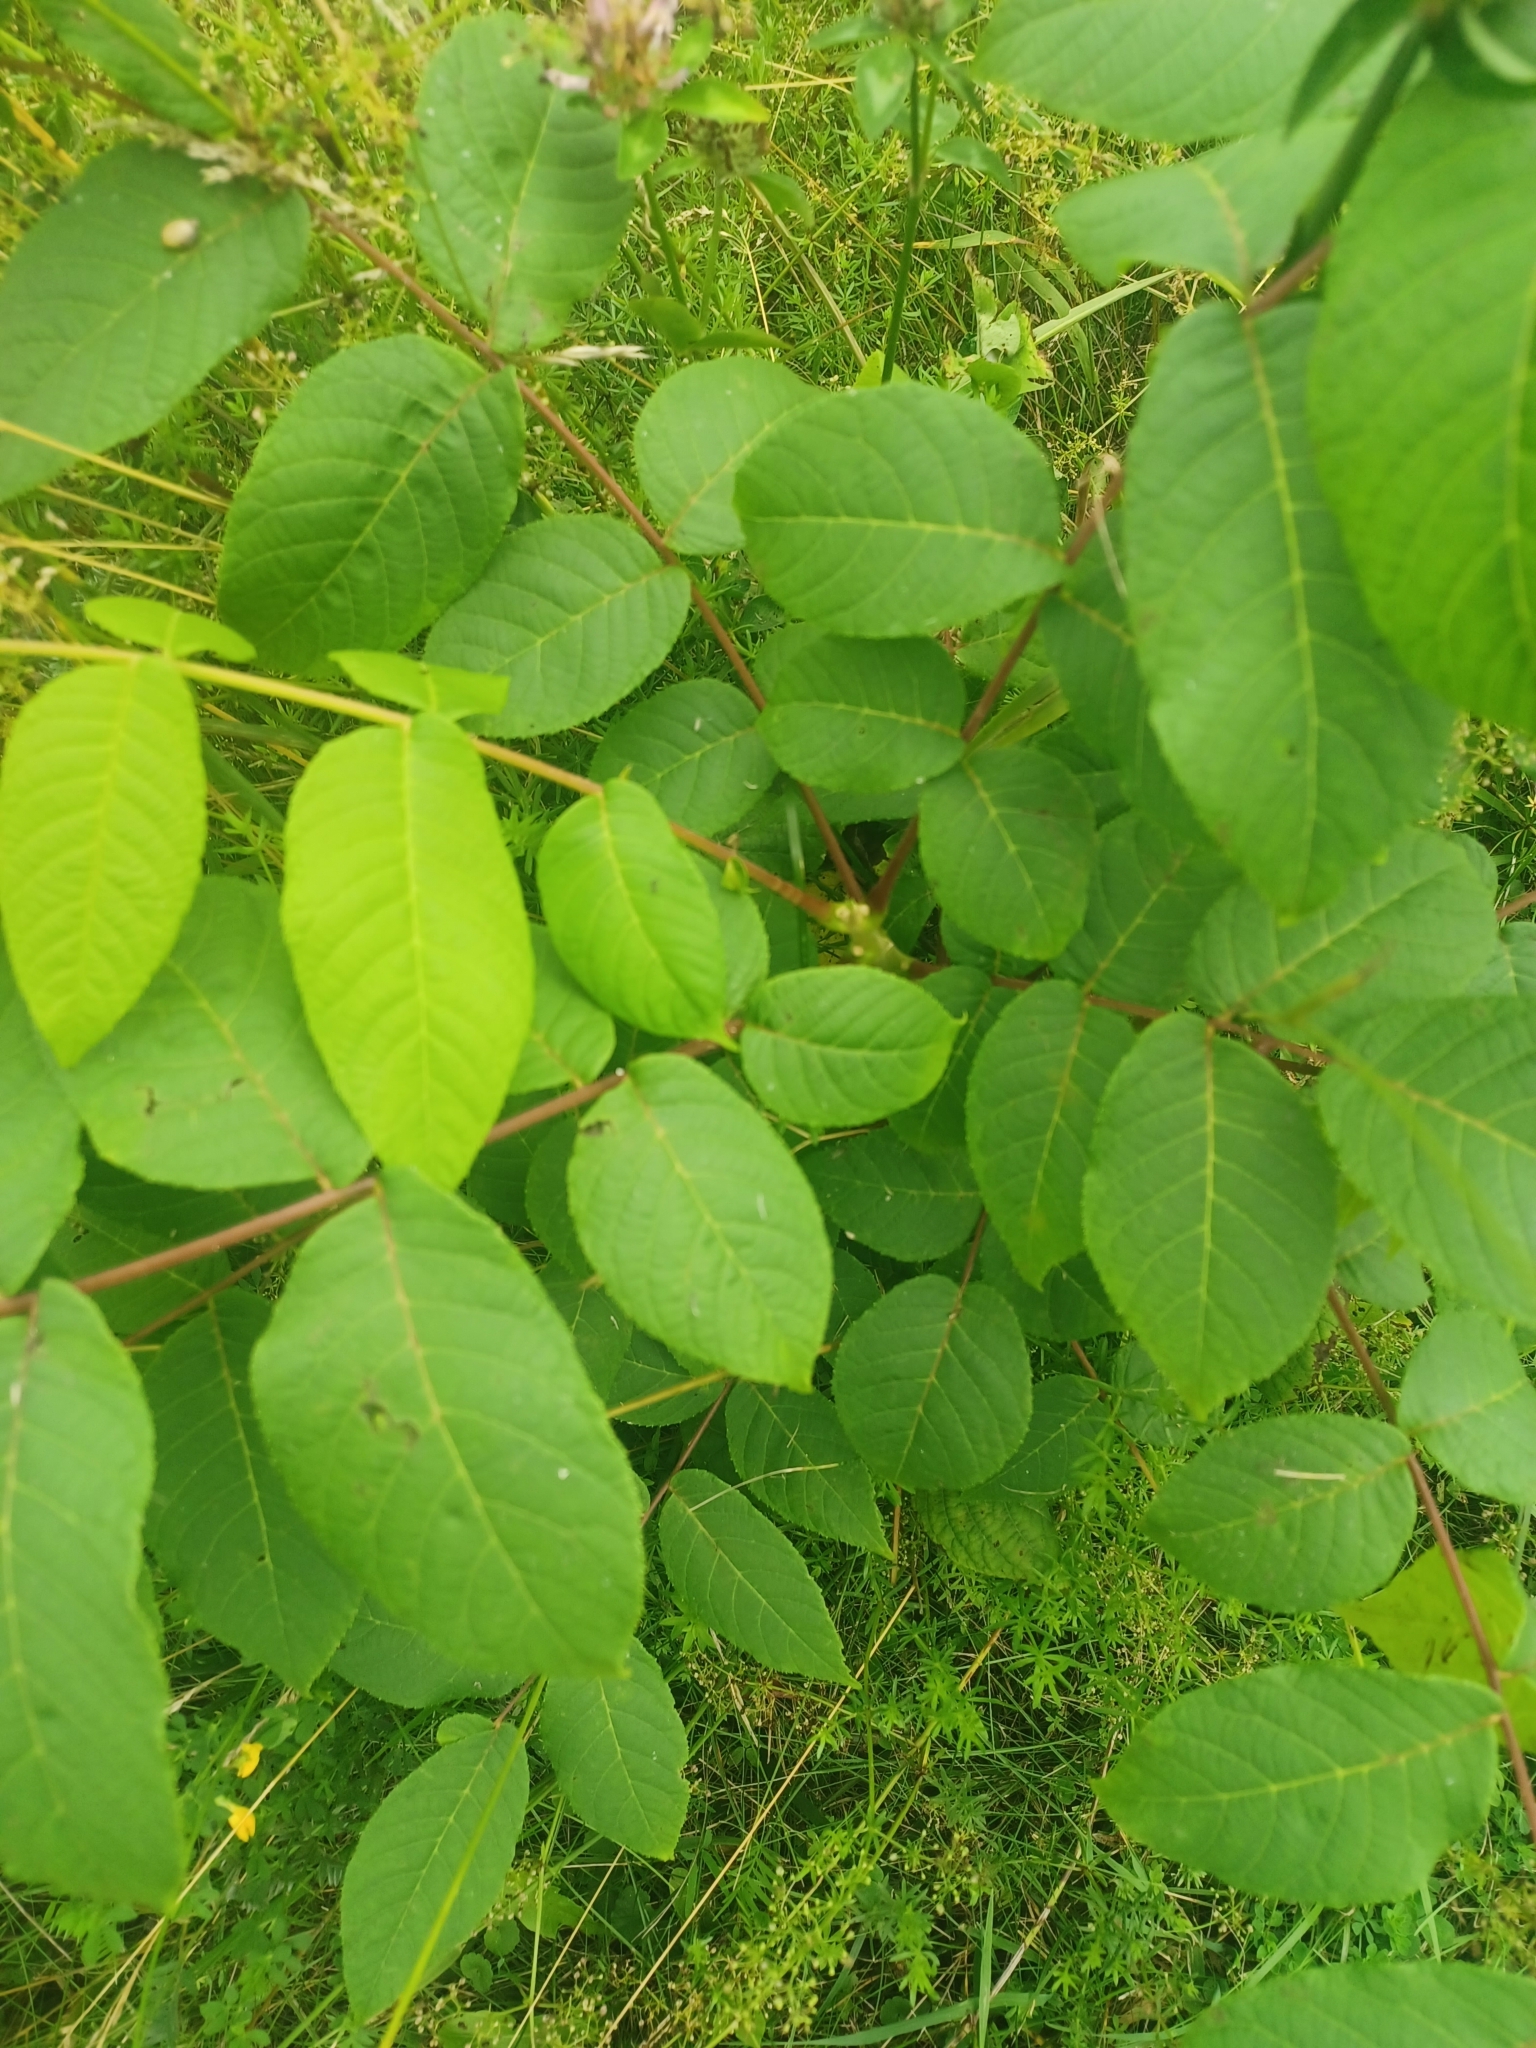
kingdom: Plantae
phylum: Tracheophyta
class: Magnoliopsida
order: Fagales
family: Juglandaceae
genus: Juglans
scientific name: Juglans nigra
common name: Black walnut
